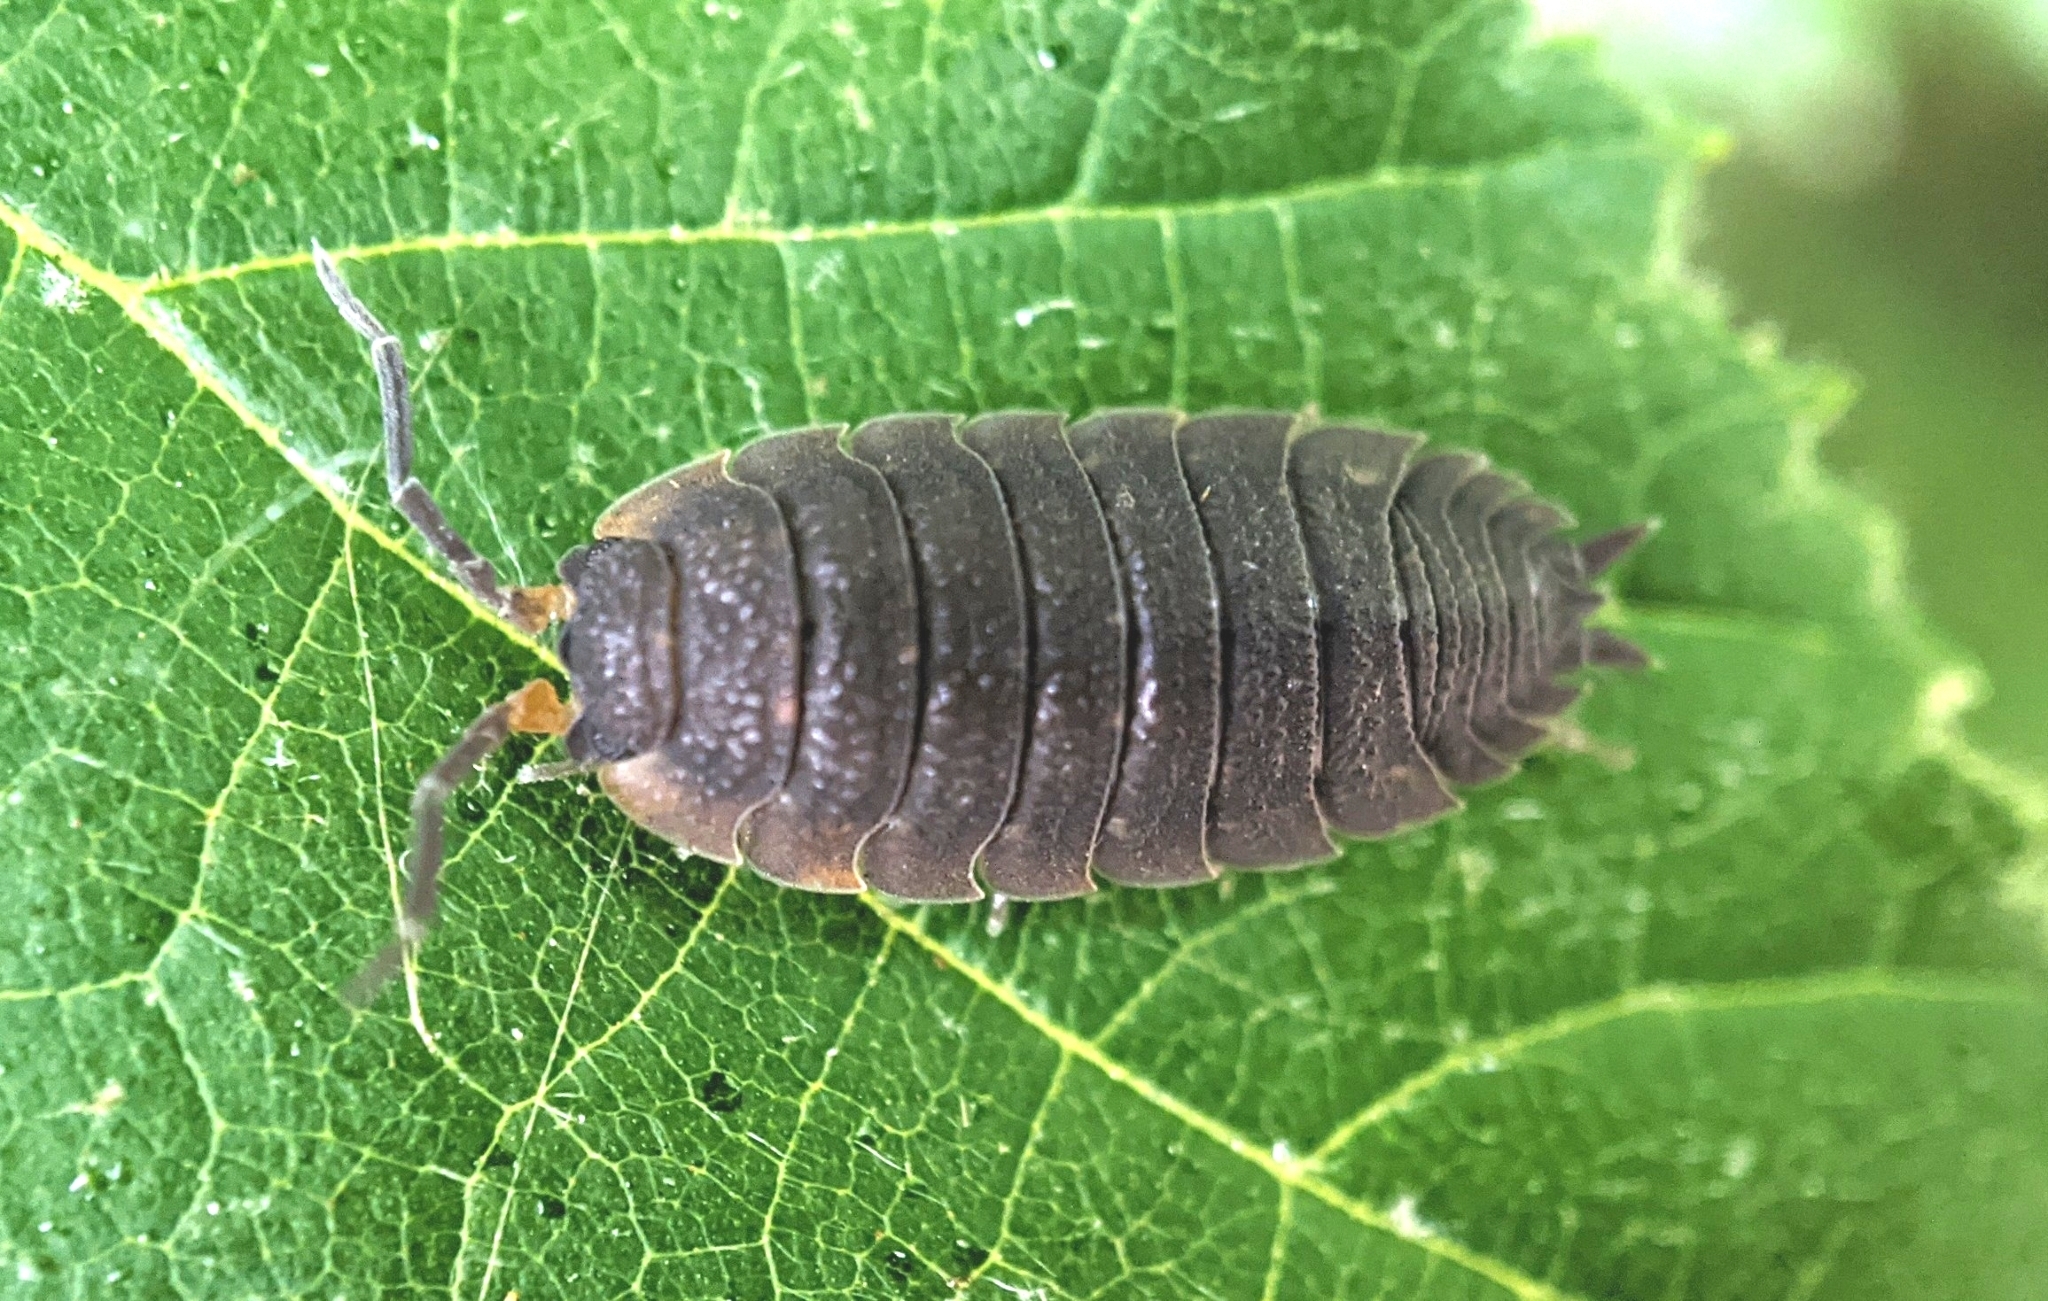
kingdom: Animalia
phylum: Arthropoda
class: Malacostraca
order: Isopoda
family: Porcellionidae
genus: Porcellio
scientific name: Porcellio scaber
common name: Common rough woodlouse
